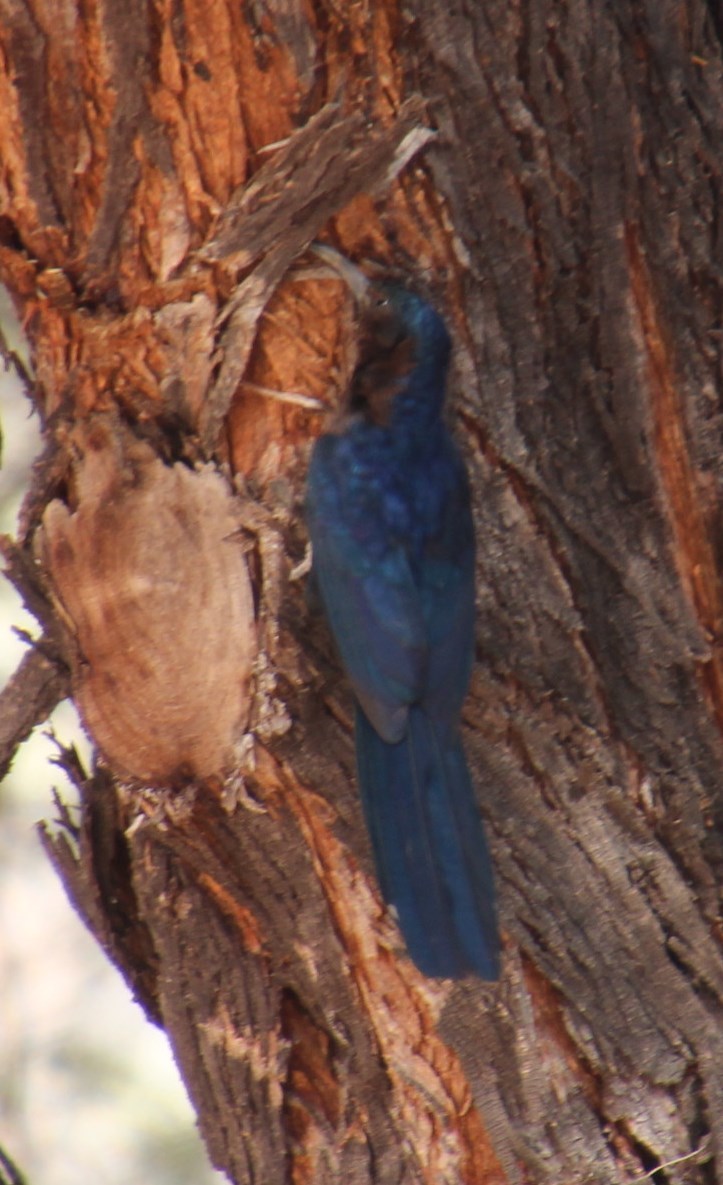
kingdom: Animalia
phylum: Chordata
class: Aves
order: Bucerotiformes
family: Phoeniculidae
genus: Rhinopomastus
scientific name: Rhinopomastus cyanomelas
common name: Common scimitarbill
